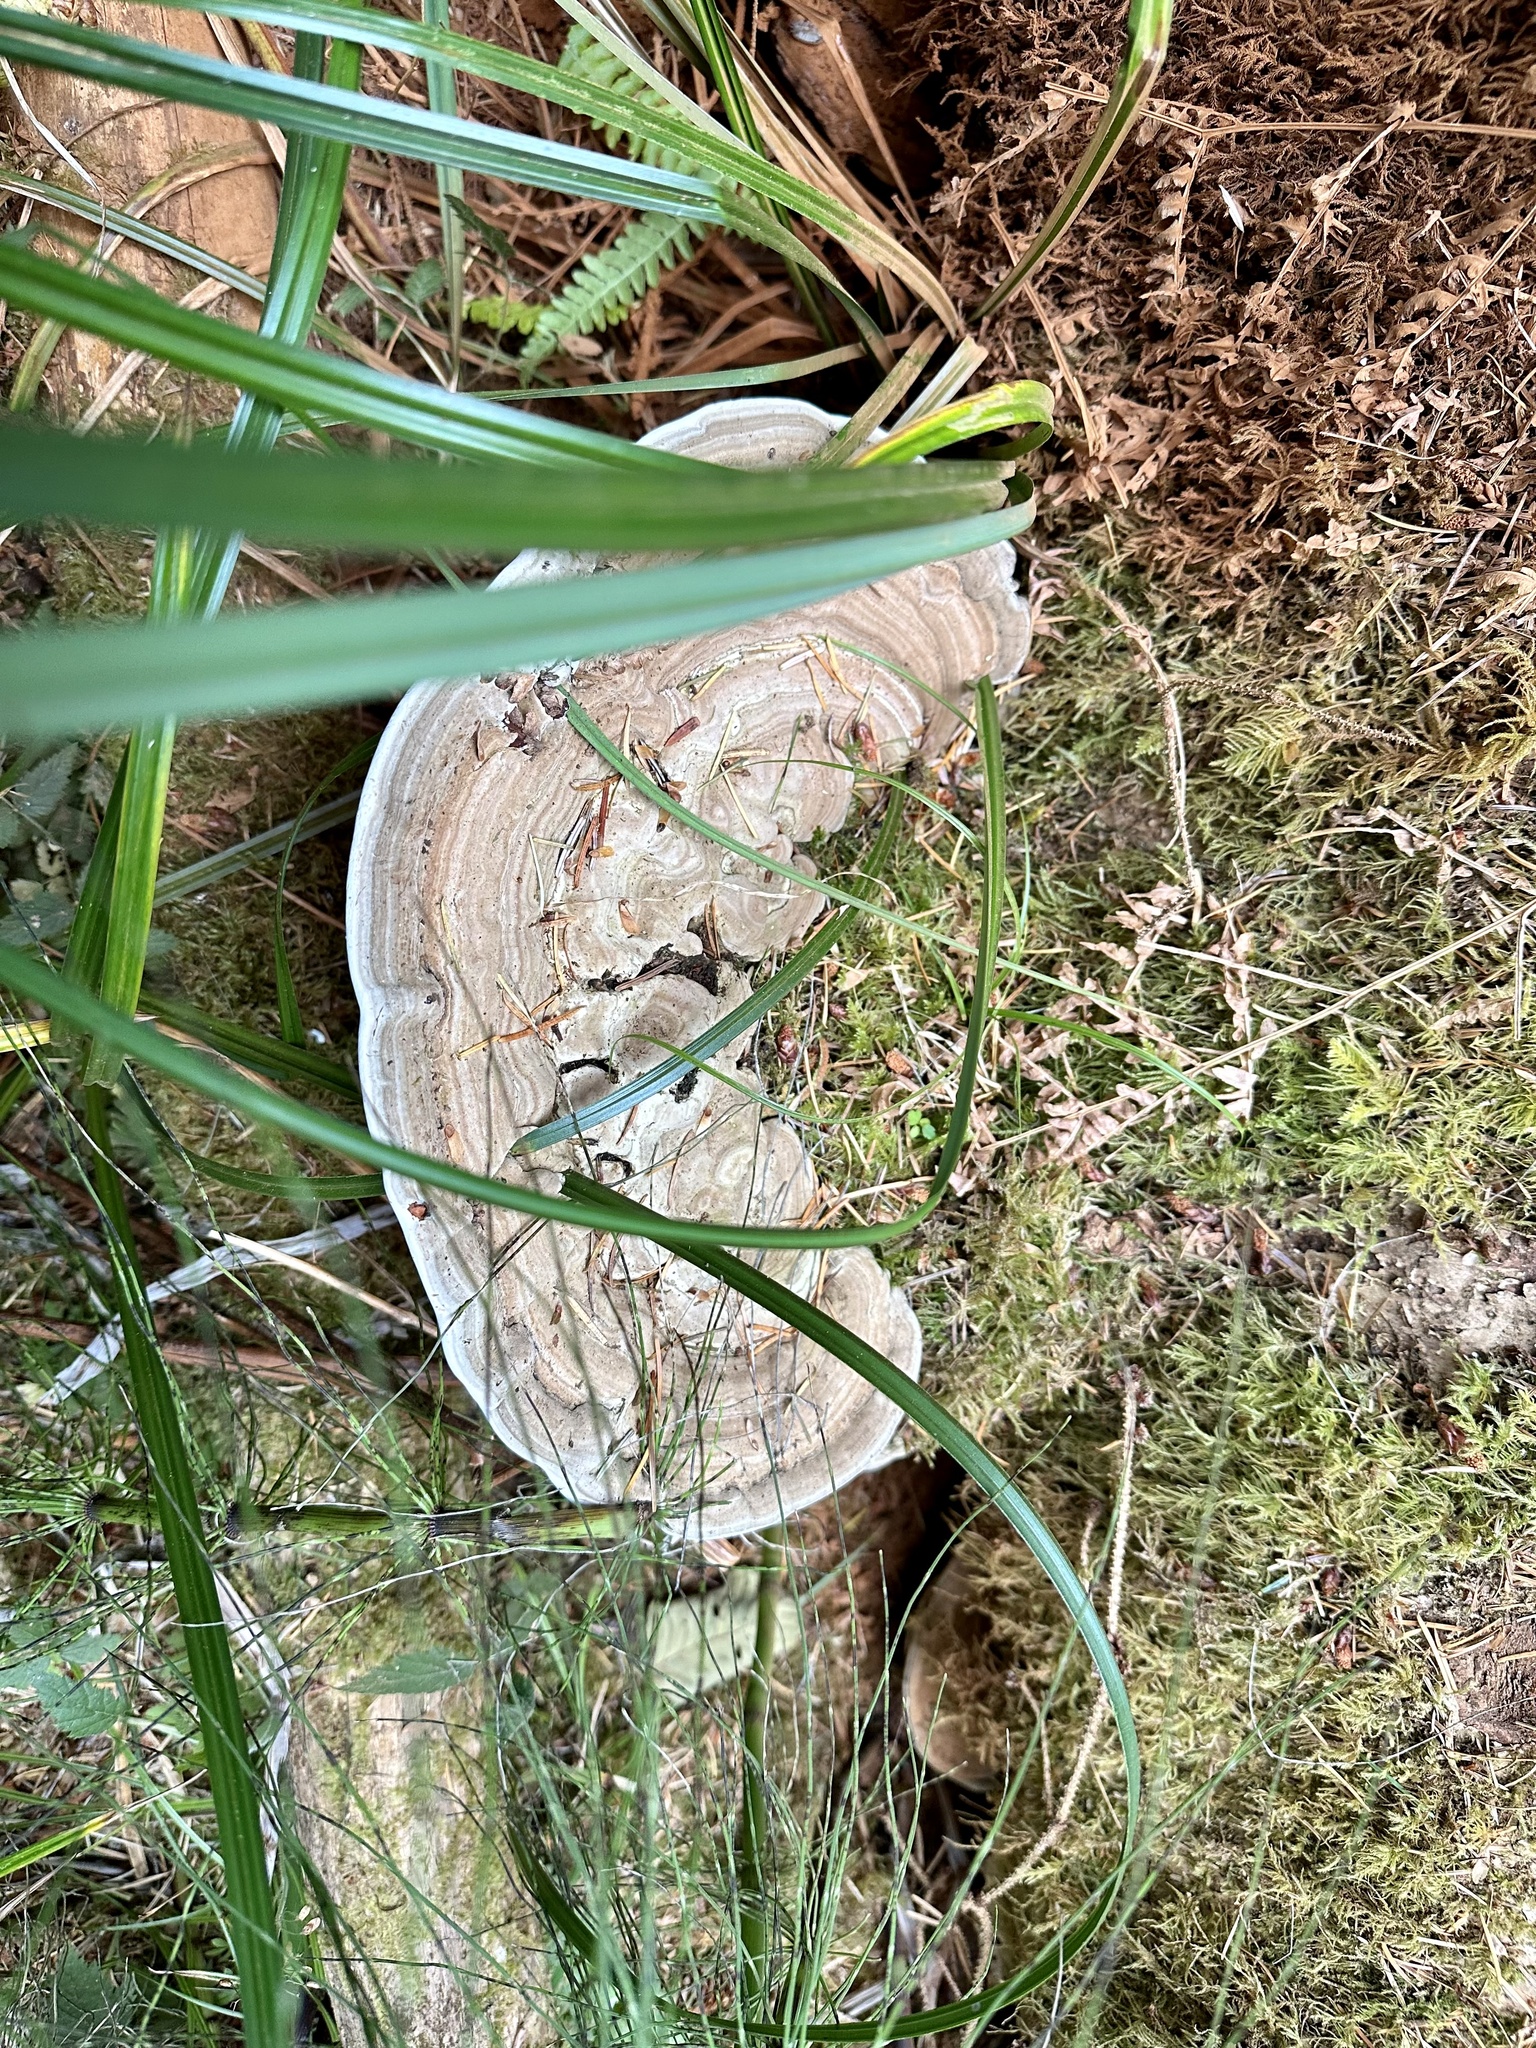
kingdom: Fungi
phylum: Basidiomycota
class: Agaricomycetes
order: Polyporales
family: Polyporaceae
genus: Ganoderma
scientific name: Ganoderma applanatum
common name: Artist's bracket
